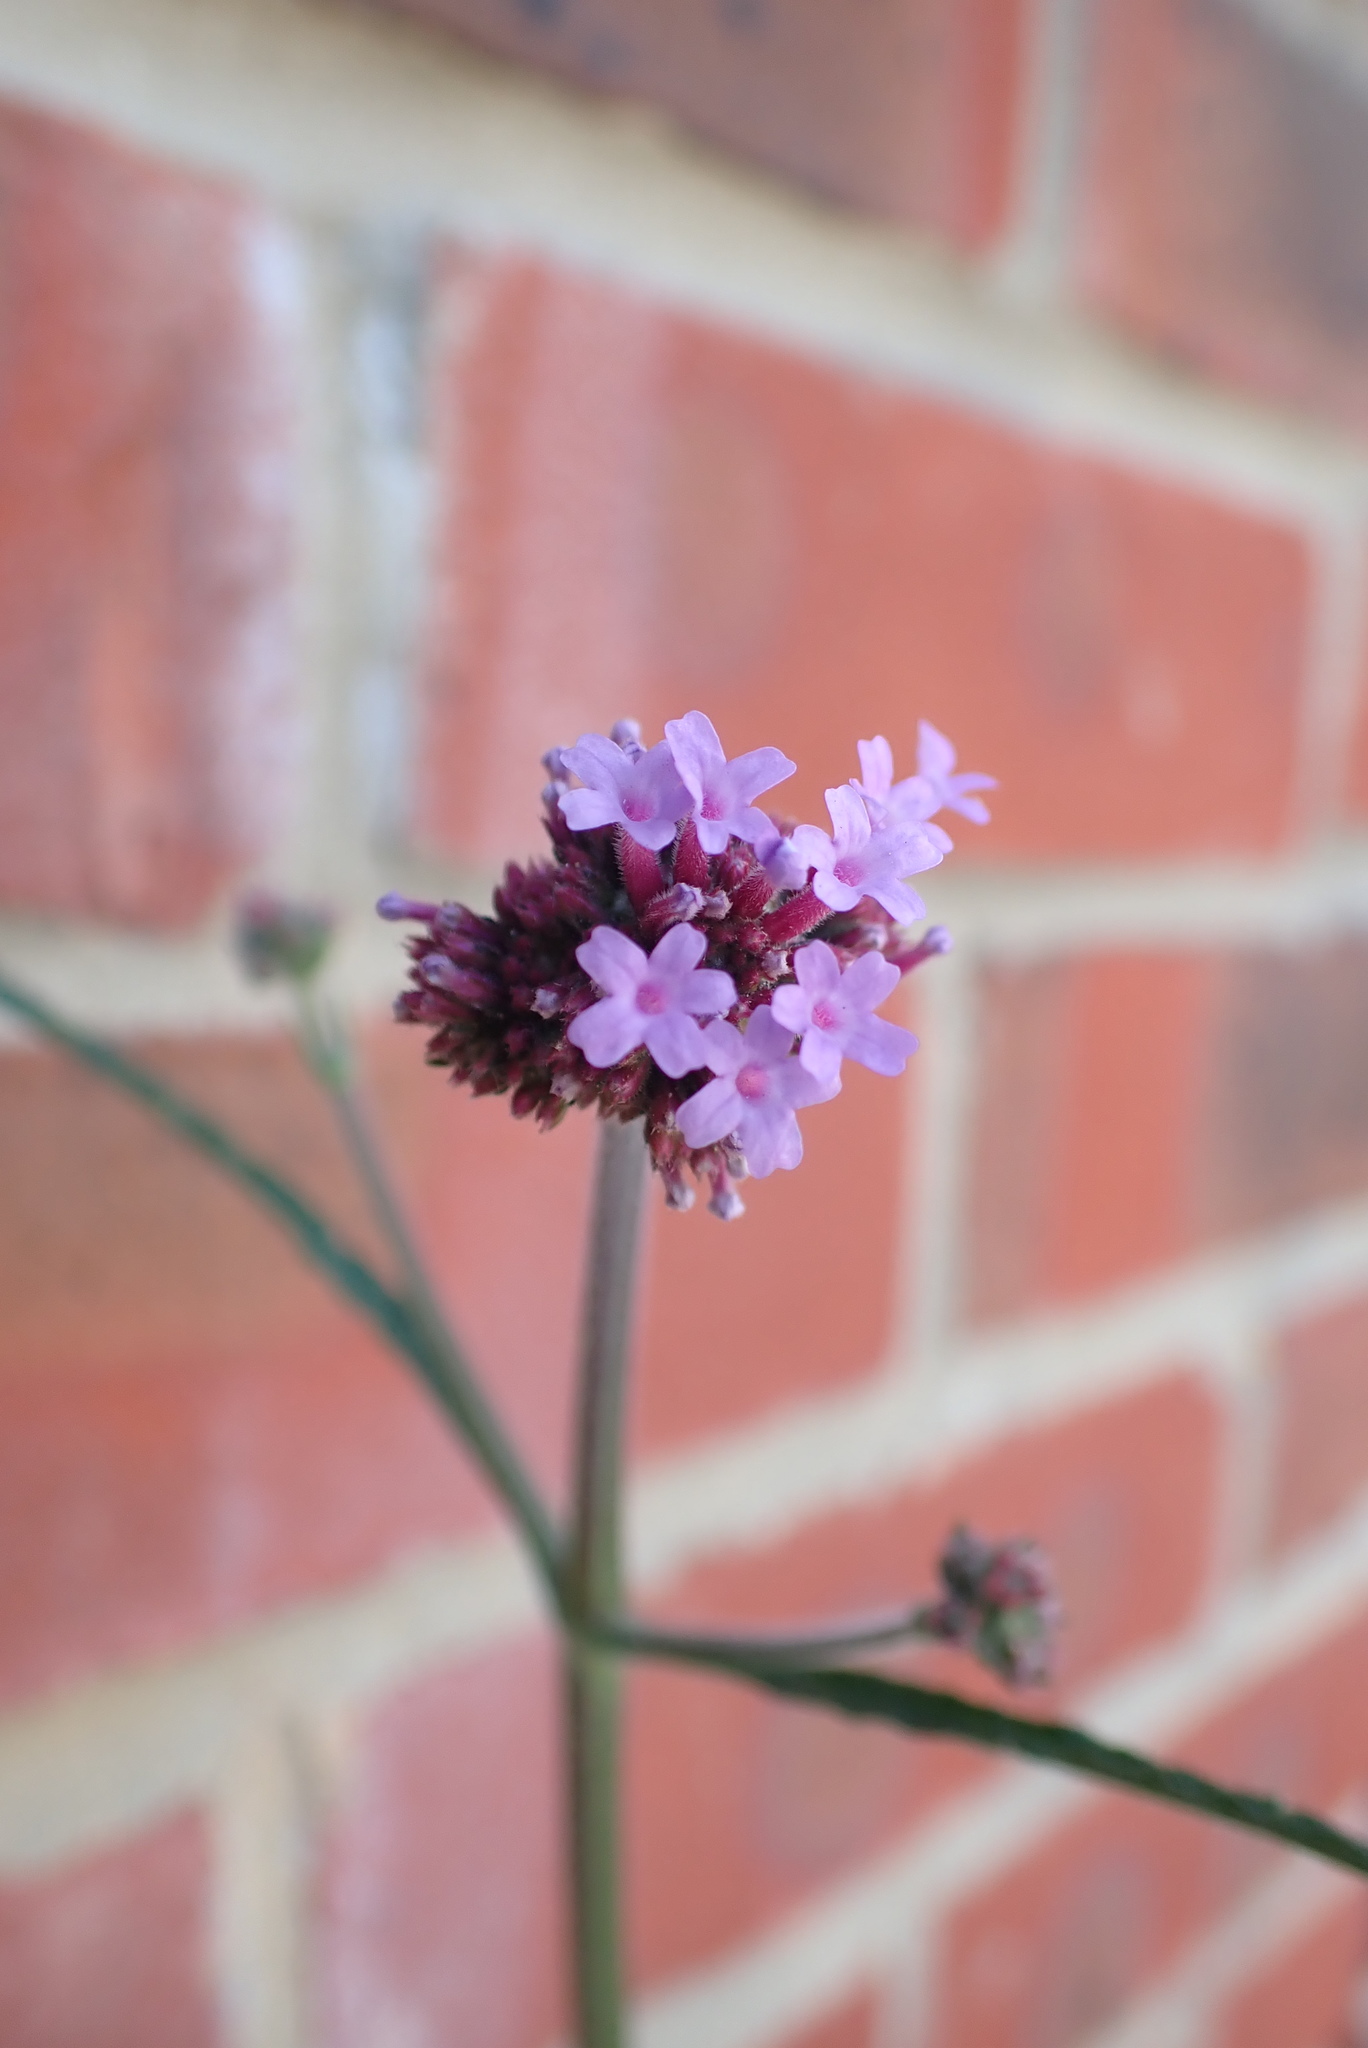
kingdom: Plantae
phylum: Tracheophyta
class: Magnoliopsida
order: Lamiales
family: Verbenaceae
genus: Verbena
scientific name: Verbena bonariensis
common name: Purpletop vervain
